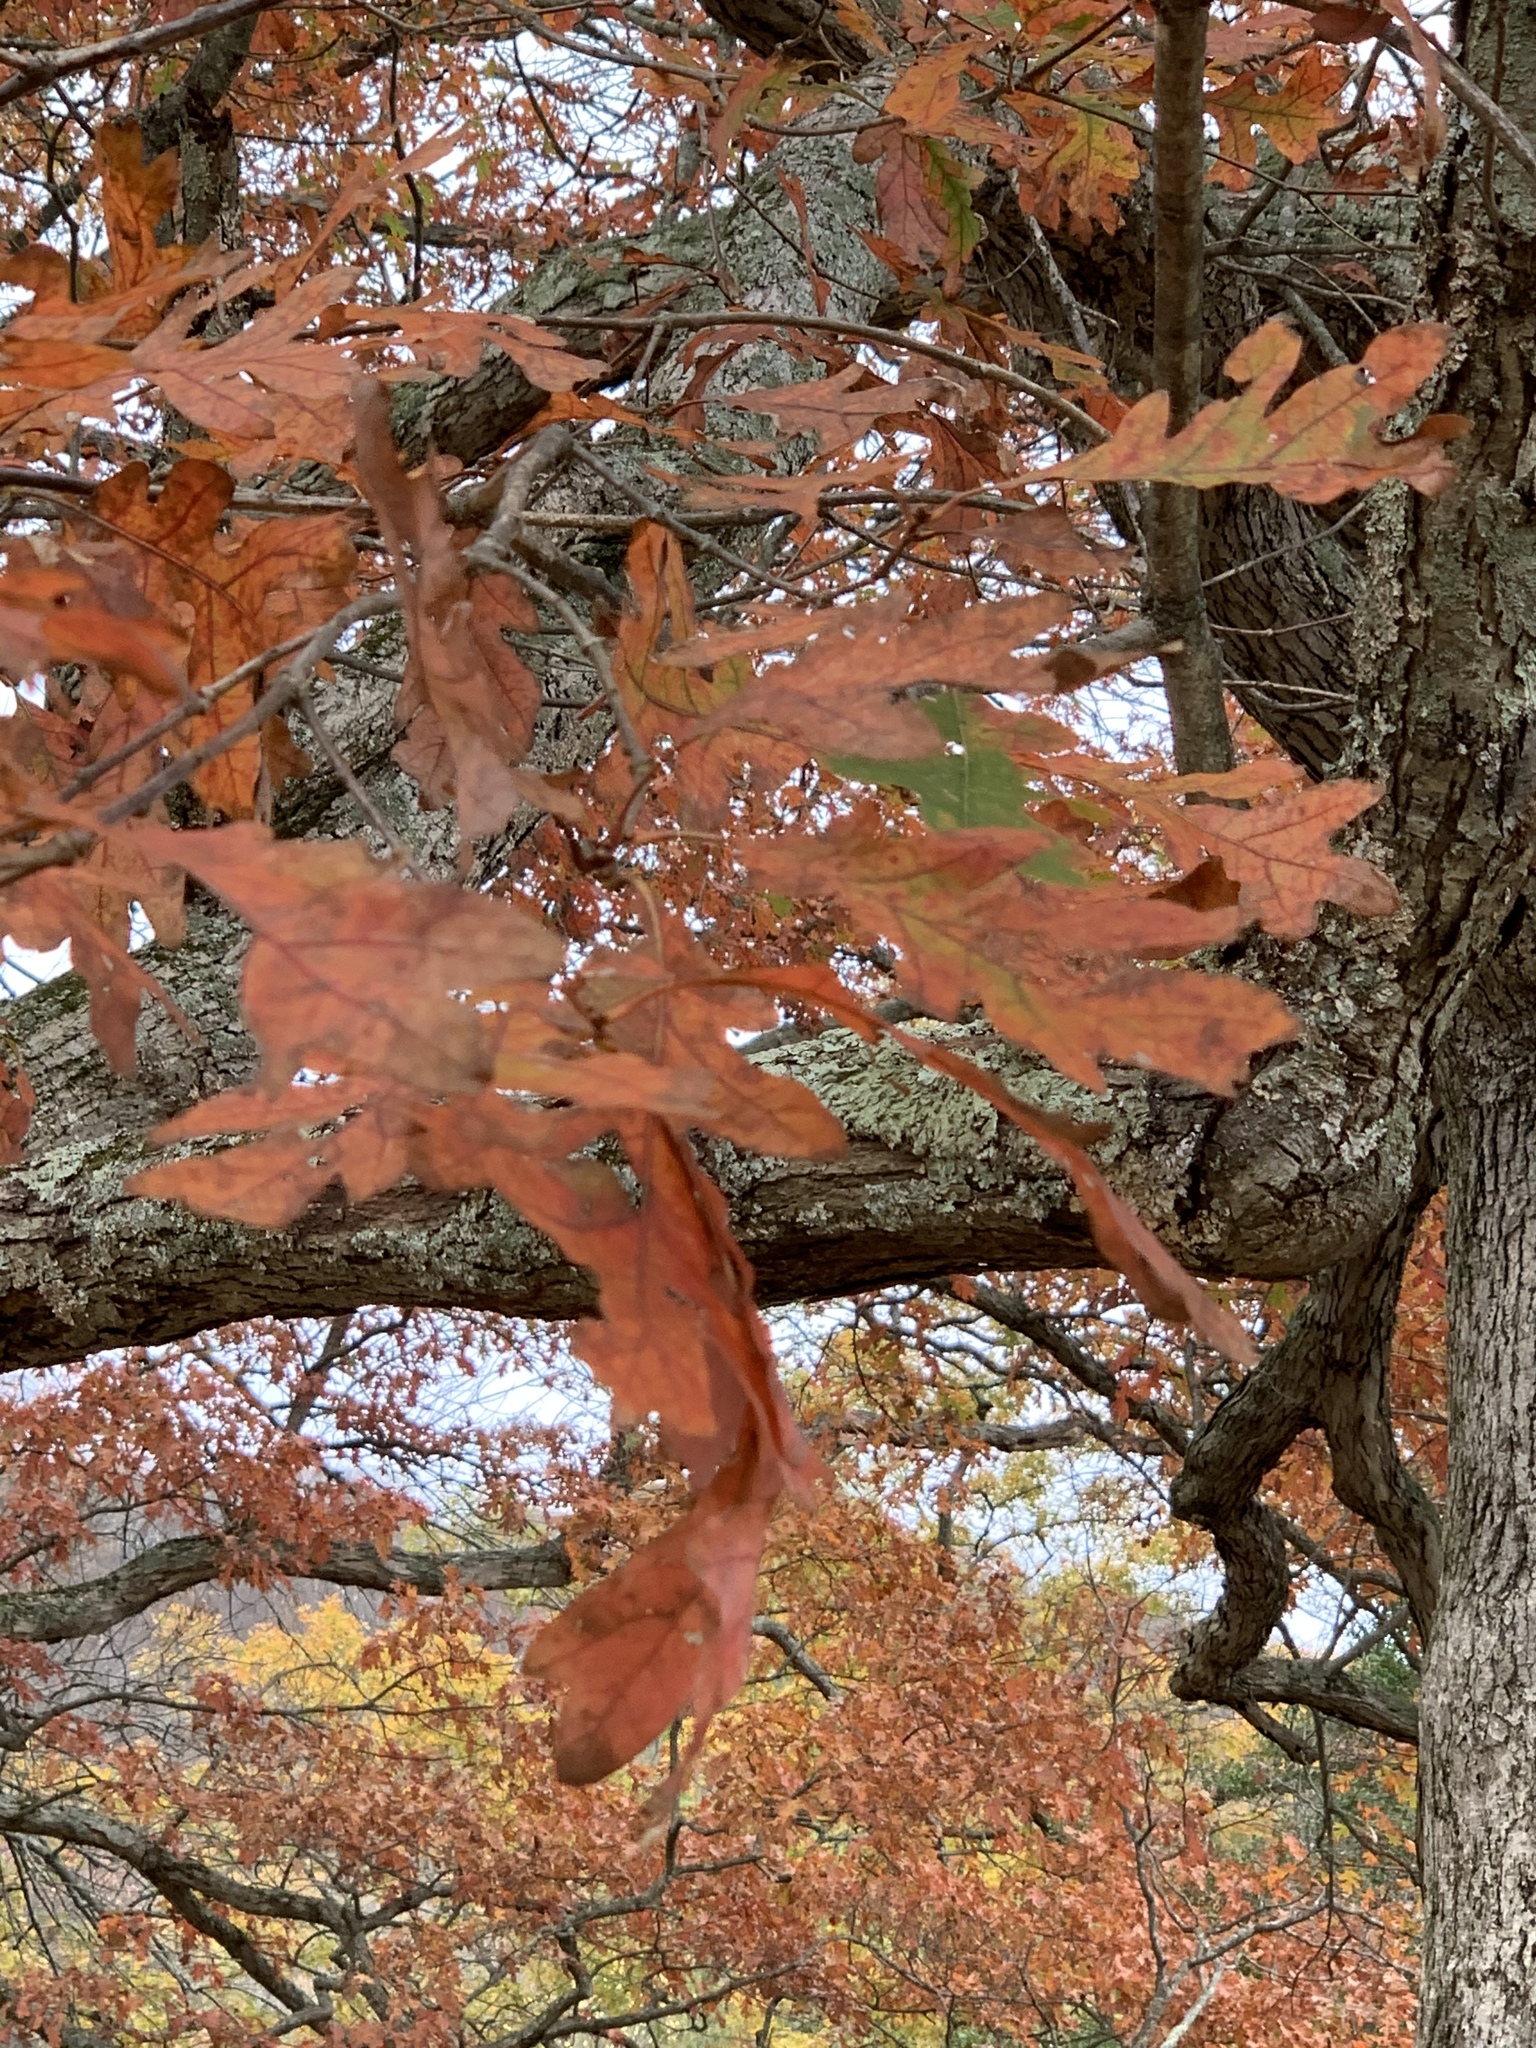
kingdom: Plantae
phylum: Tracheophyta
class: Magnoliopsida
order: Fagales
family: Fagaceae
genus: Quercus
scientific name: Quercus alba
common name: White oak
